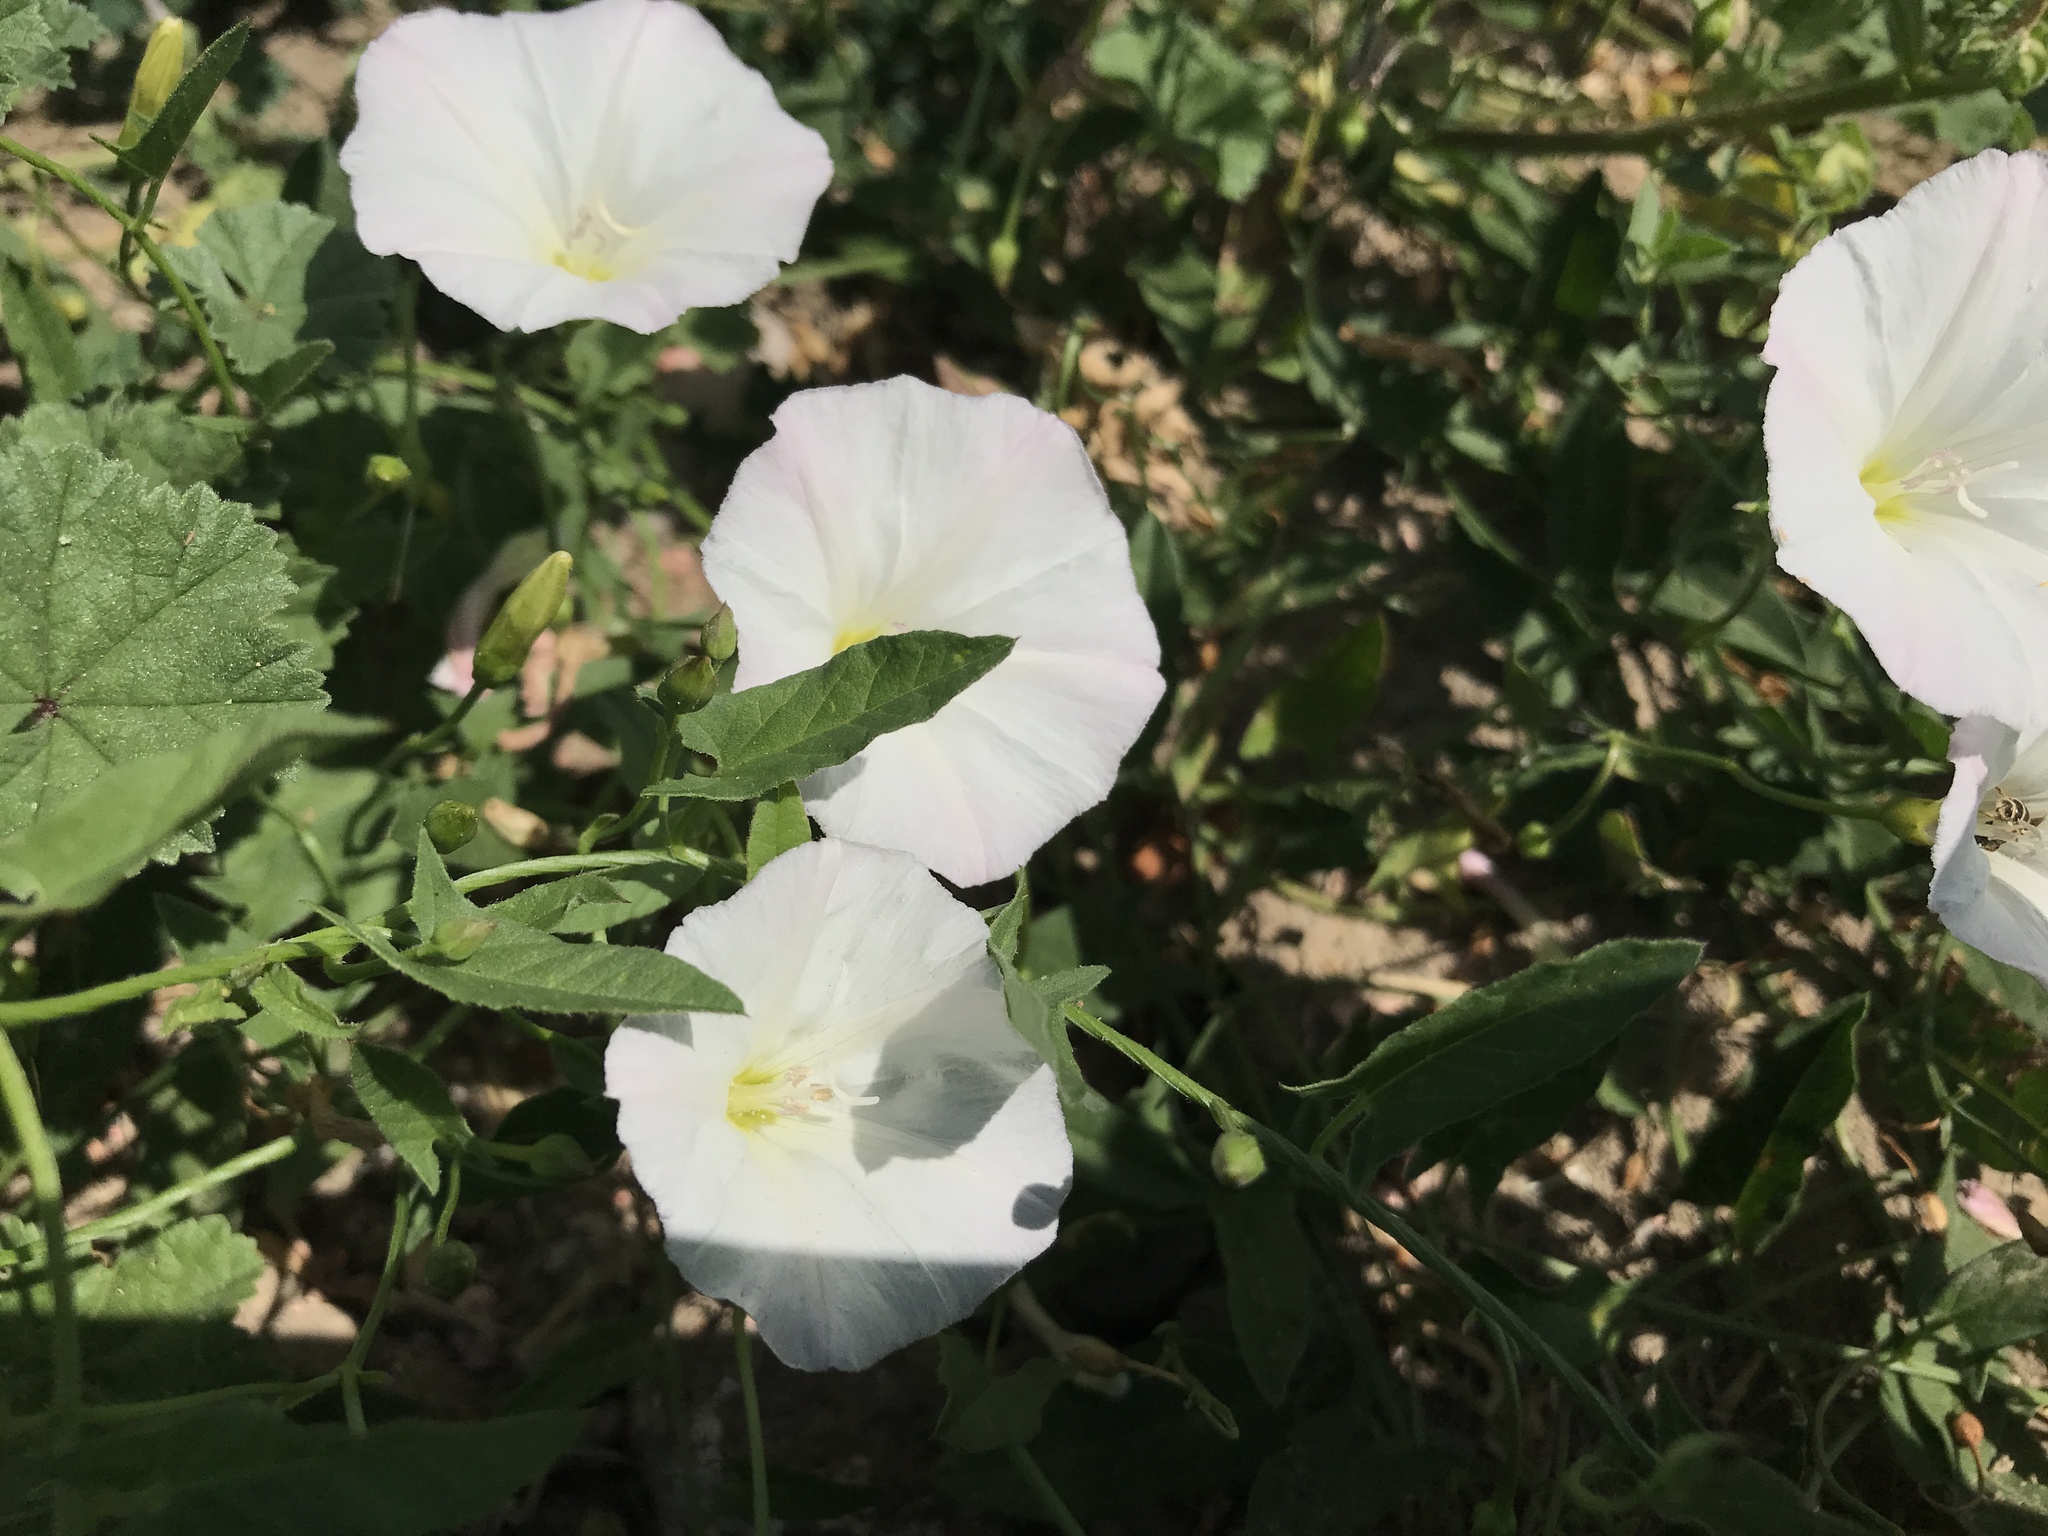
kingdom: Plantae
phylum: Tracheophyta
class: Magnoliopsida
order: Solanales
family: Convolvulaceae
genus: Convolvulus
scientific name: Convolvulus arvensis
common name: Field bindweed
